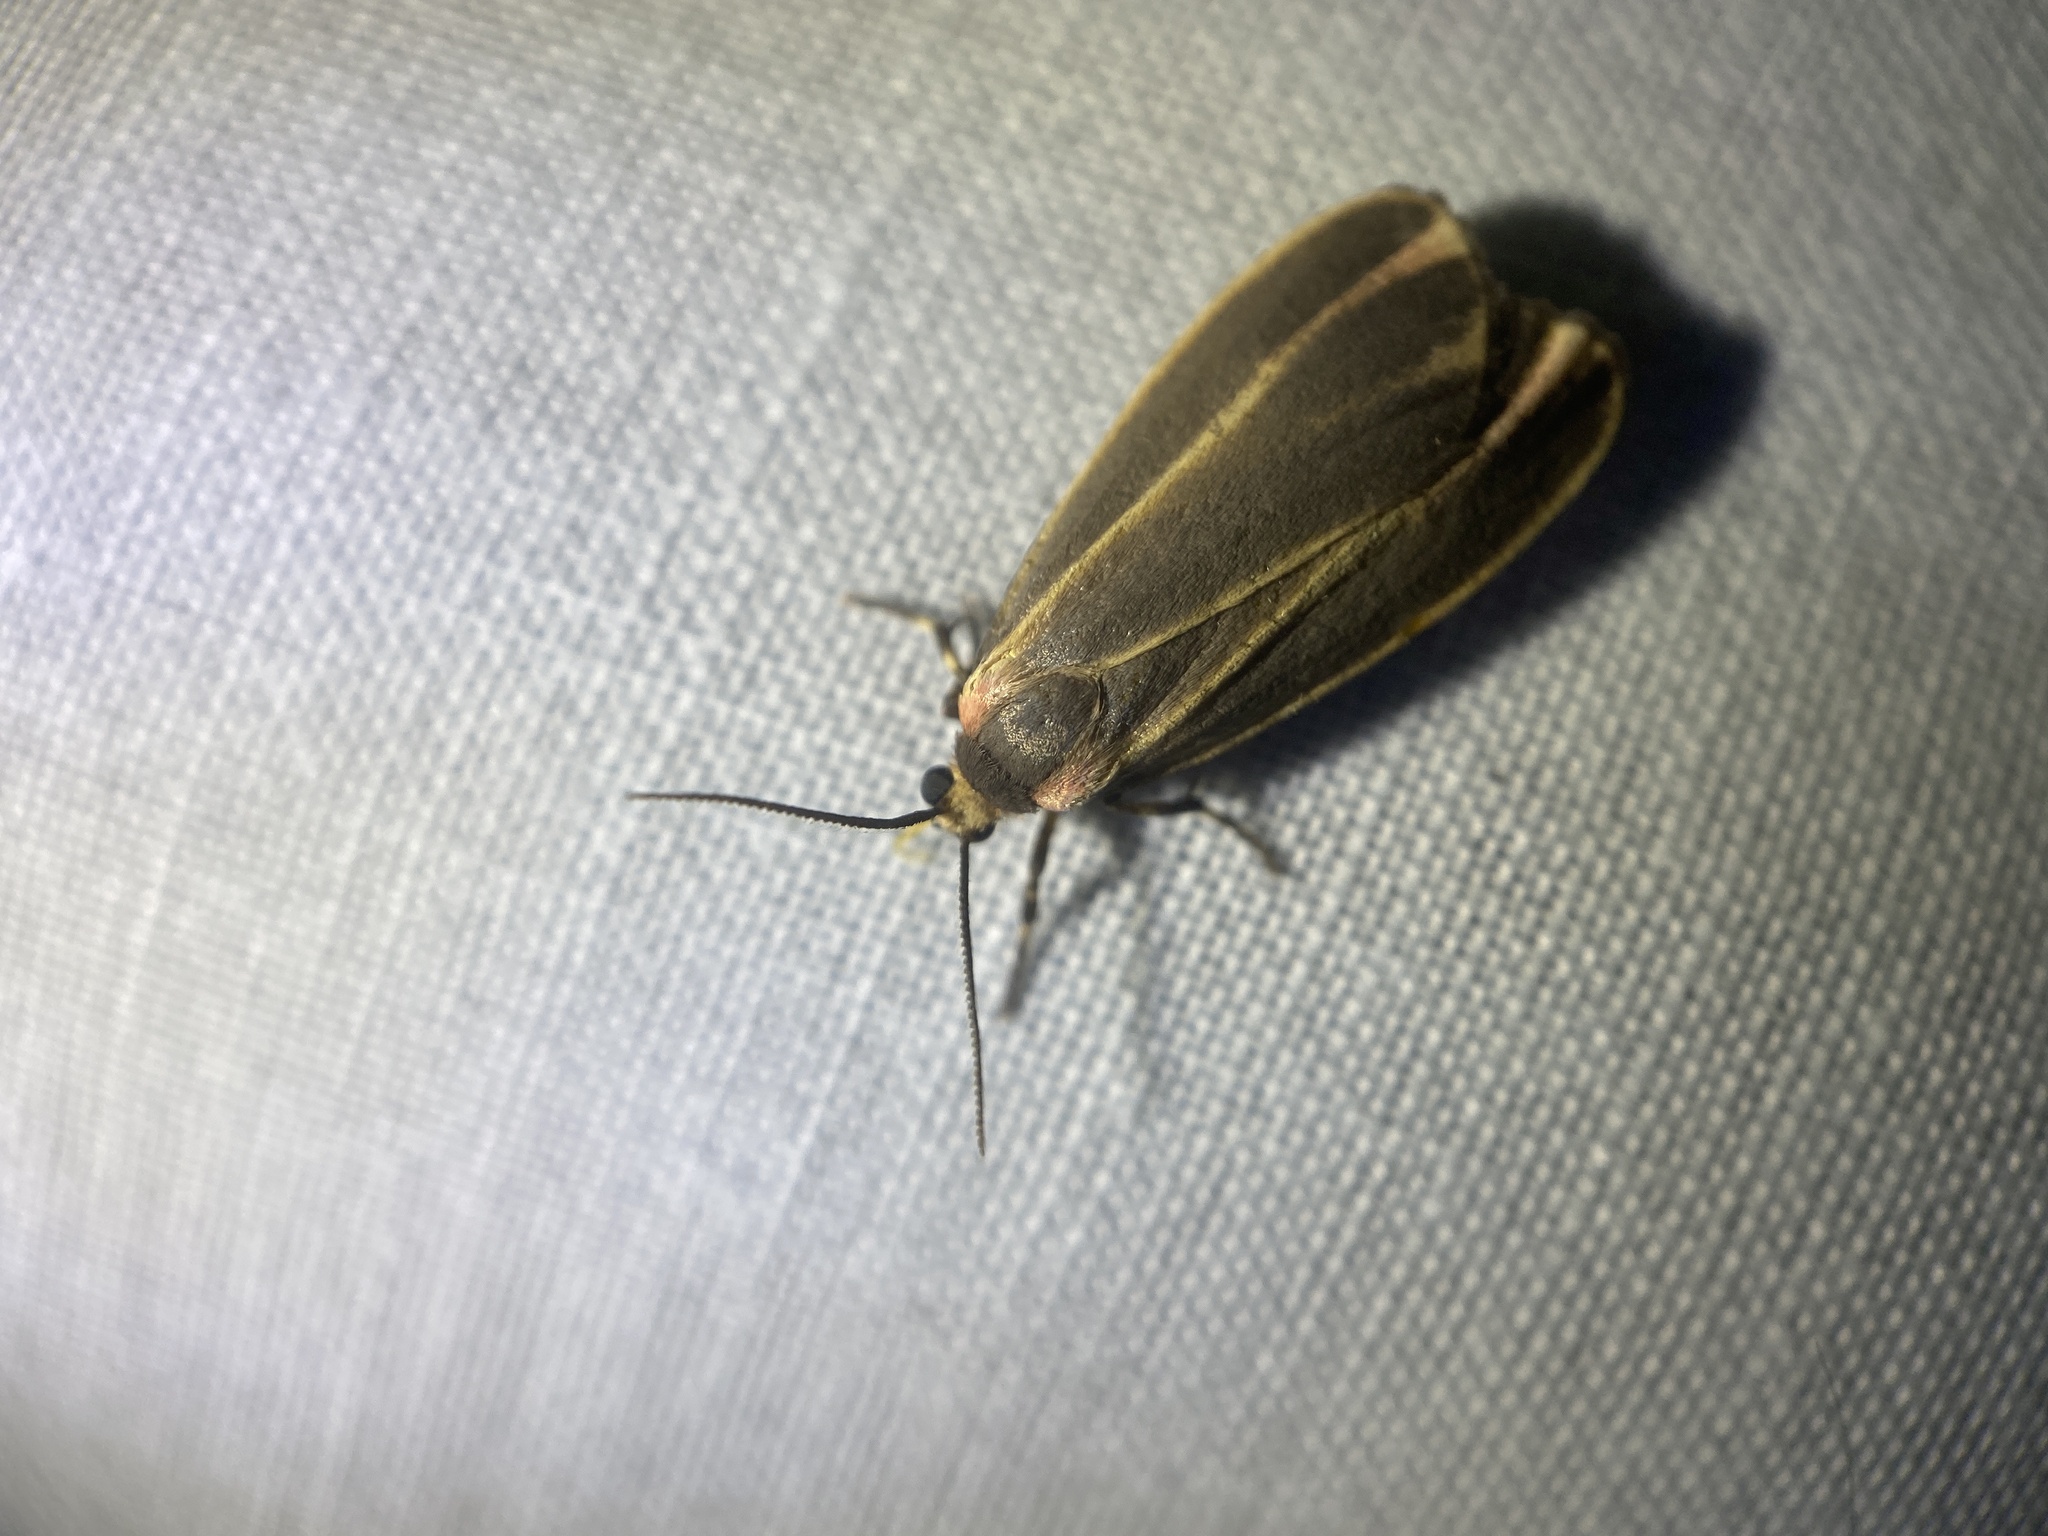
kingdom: Animalia
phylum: Arthropoda
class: Insecta
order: Lepidoptera
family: Erebidae
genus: Hypoprepia
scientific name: Hypoprepia fucosa
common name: Painted lichen moth
